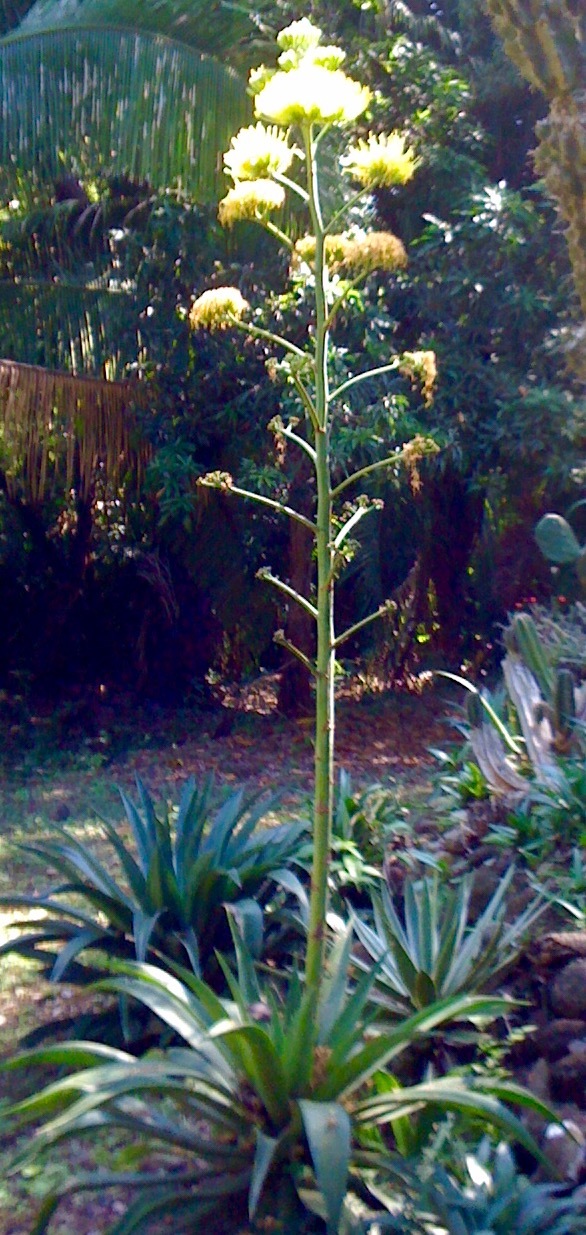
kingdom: Plantae
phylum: Tracheophyta
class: Liliopsida
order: Asparagales
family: Asparagaceae
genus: Agave
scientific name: Agave
